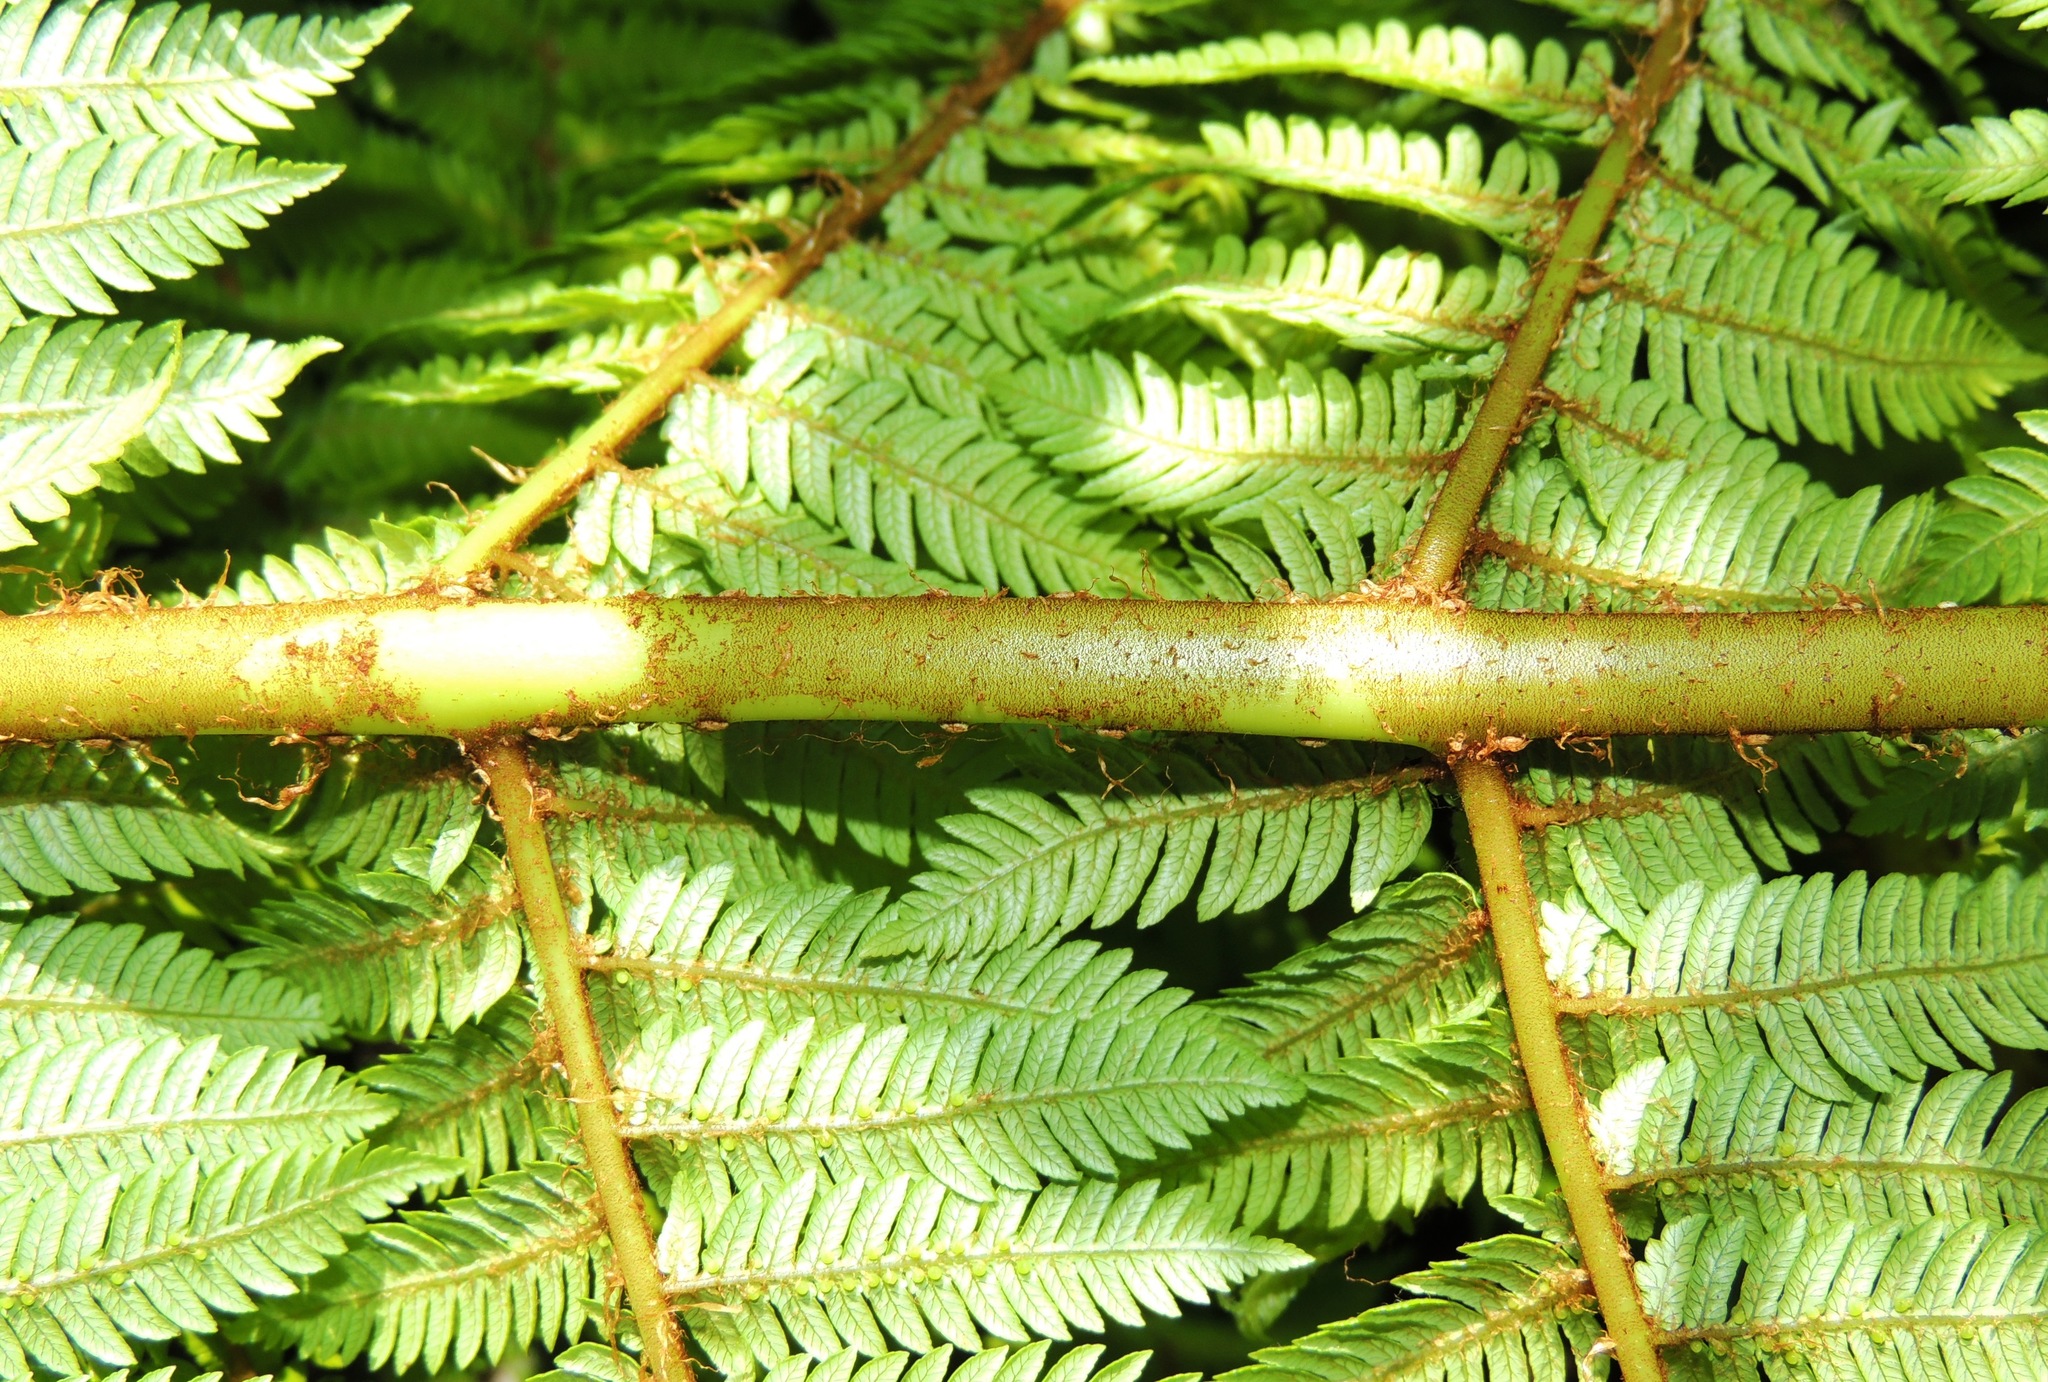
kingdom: Plantae
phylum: Tracheophyta
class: Polypodiopsida
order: Cyatheales
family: Cyatheaceae
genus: Alsophila
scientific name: Alsophila smithii
